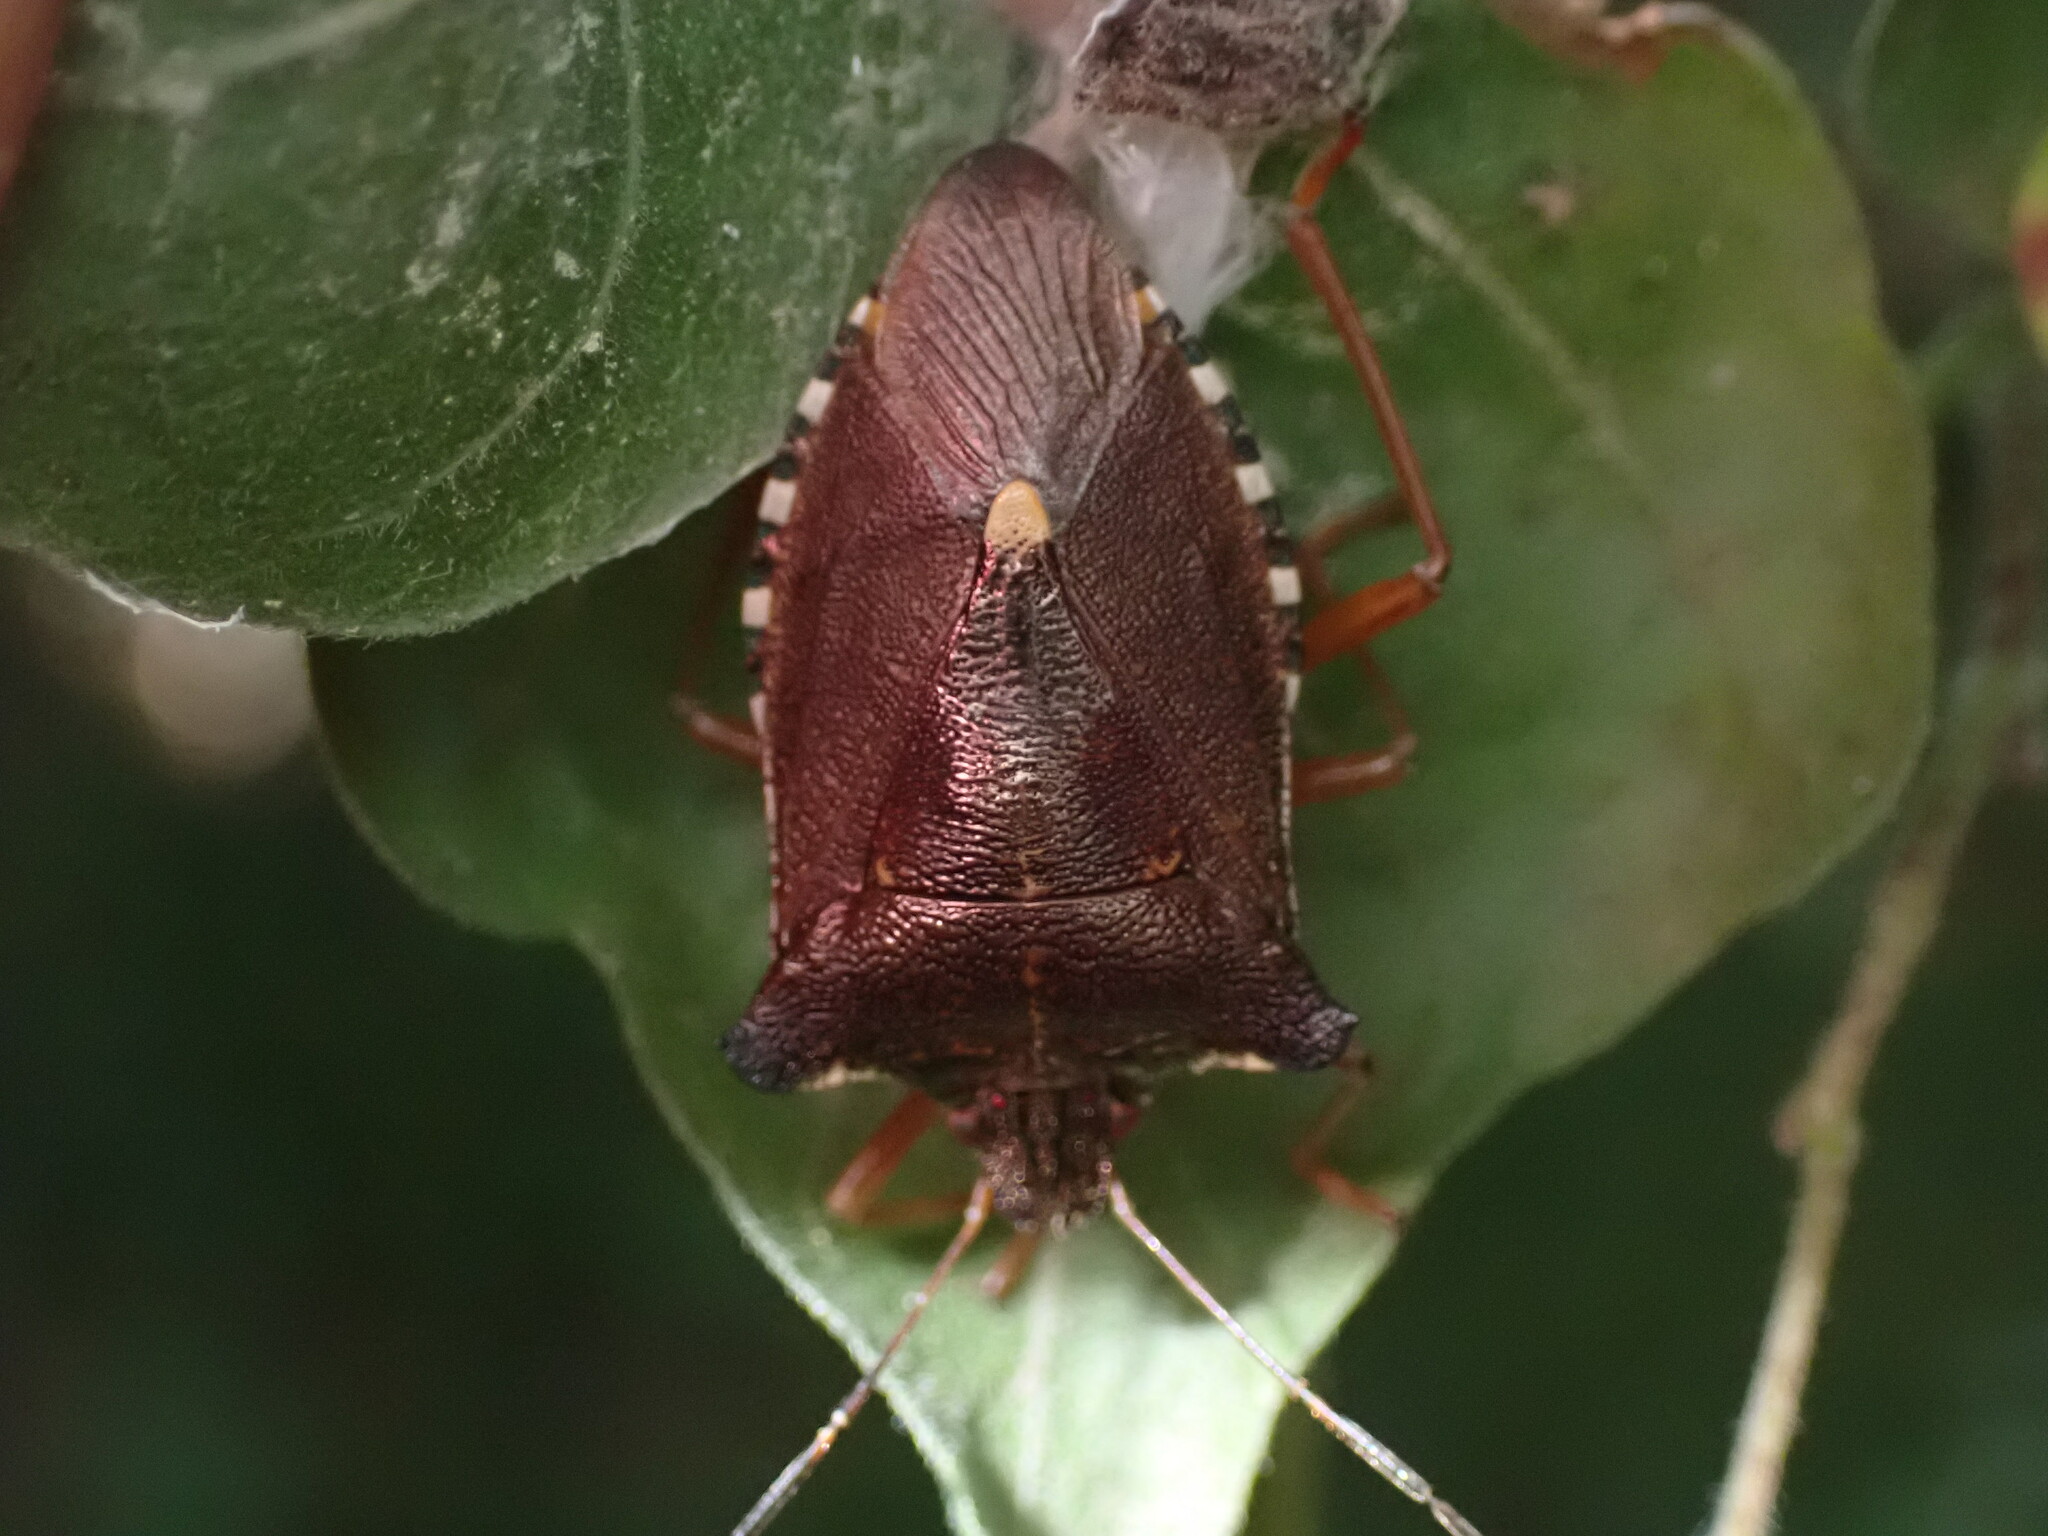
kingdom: Animalia
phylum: Arthropoda
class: Insecta
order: Hemiptera
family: Pentatomidae
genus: Pentatoma
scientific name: Pentatoma rufipes
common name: Forest bug
